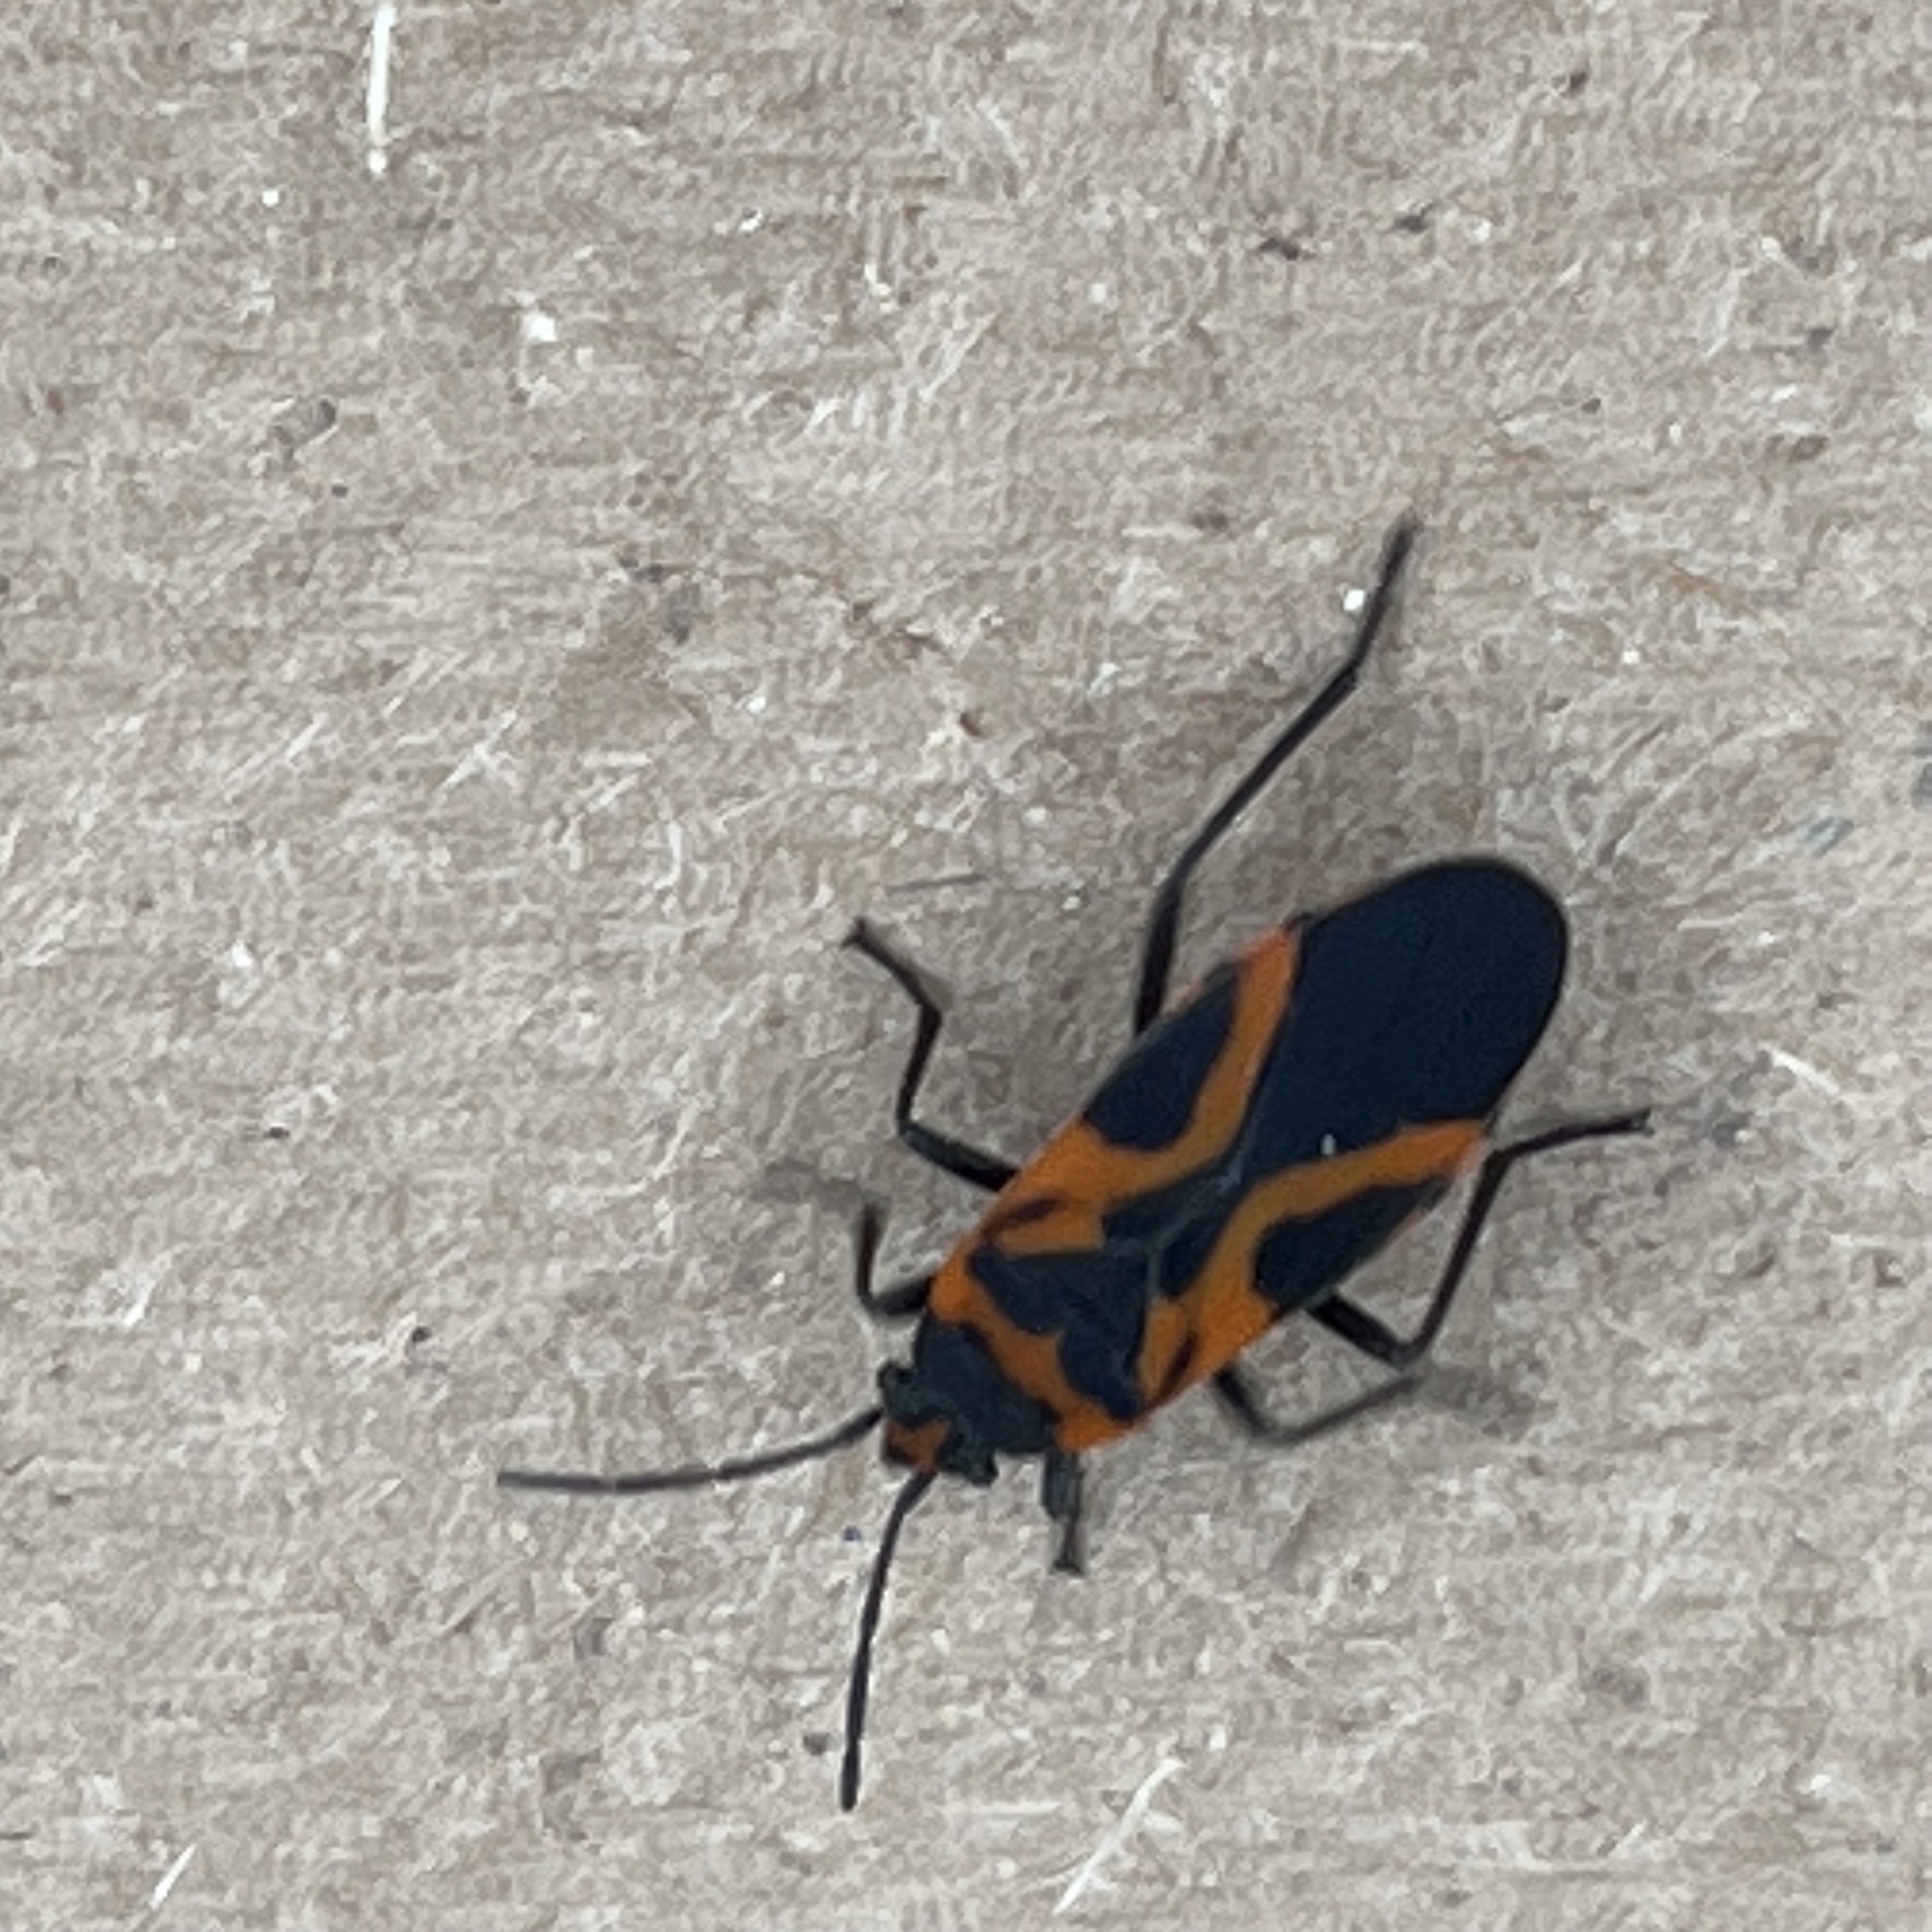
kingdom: Animalia
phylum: Arthropoda
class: Insecta
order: Hemiptera
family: Lygaeidae
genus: Lygaeus
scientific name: Lygaeus turcicus
